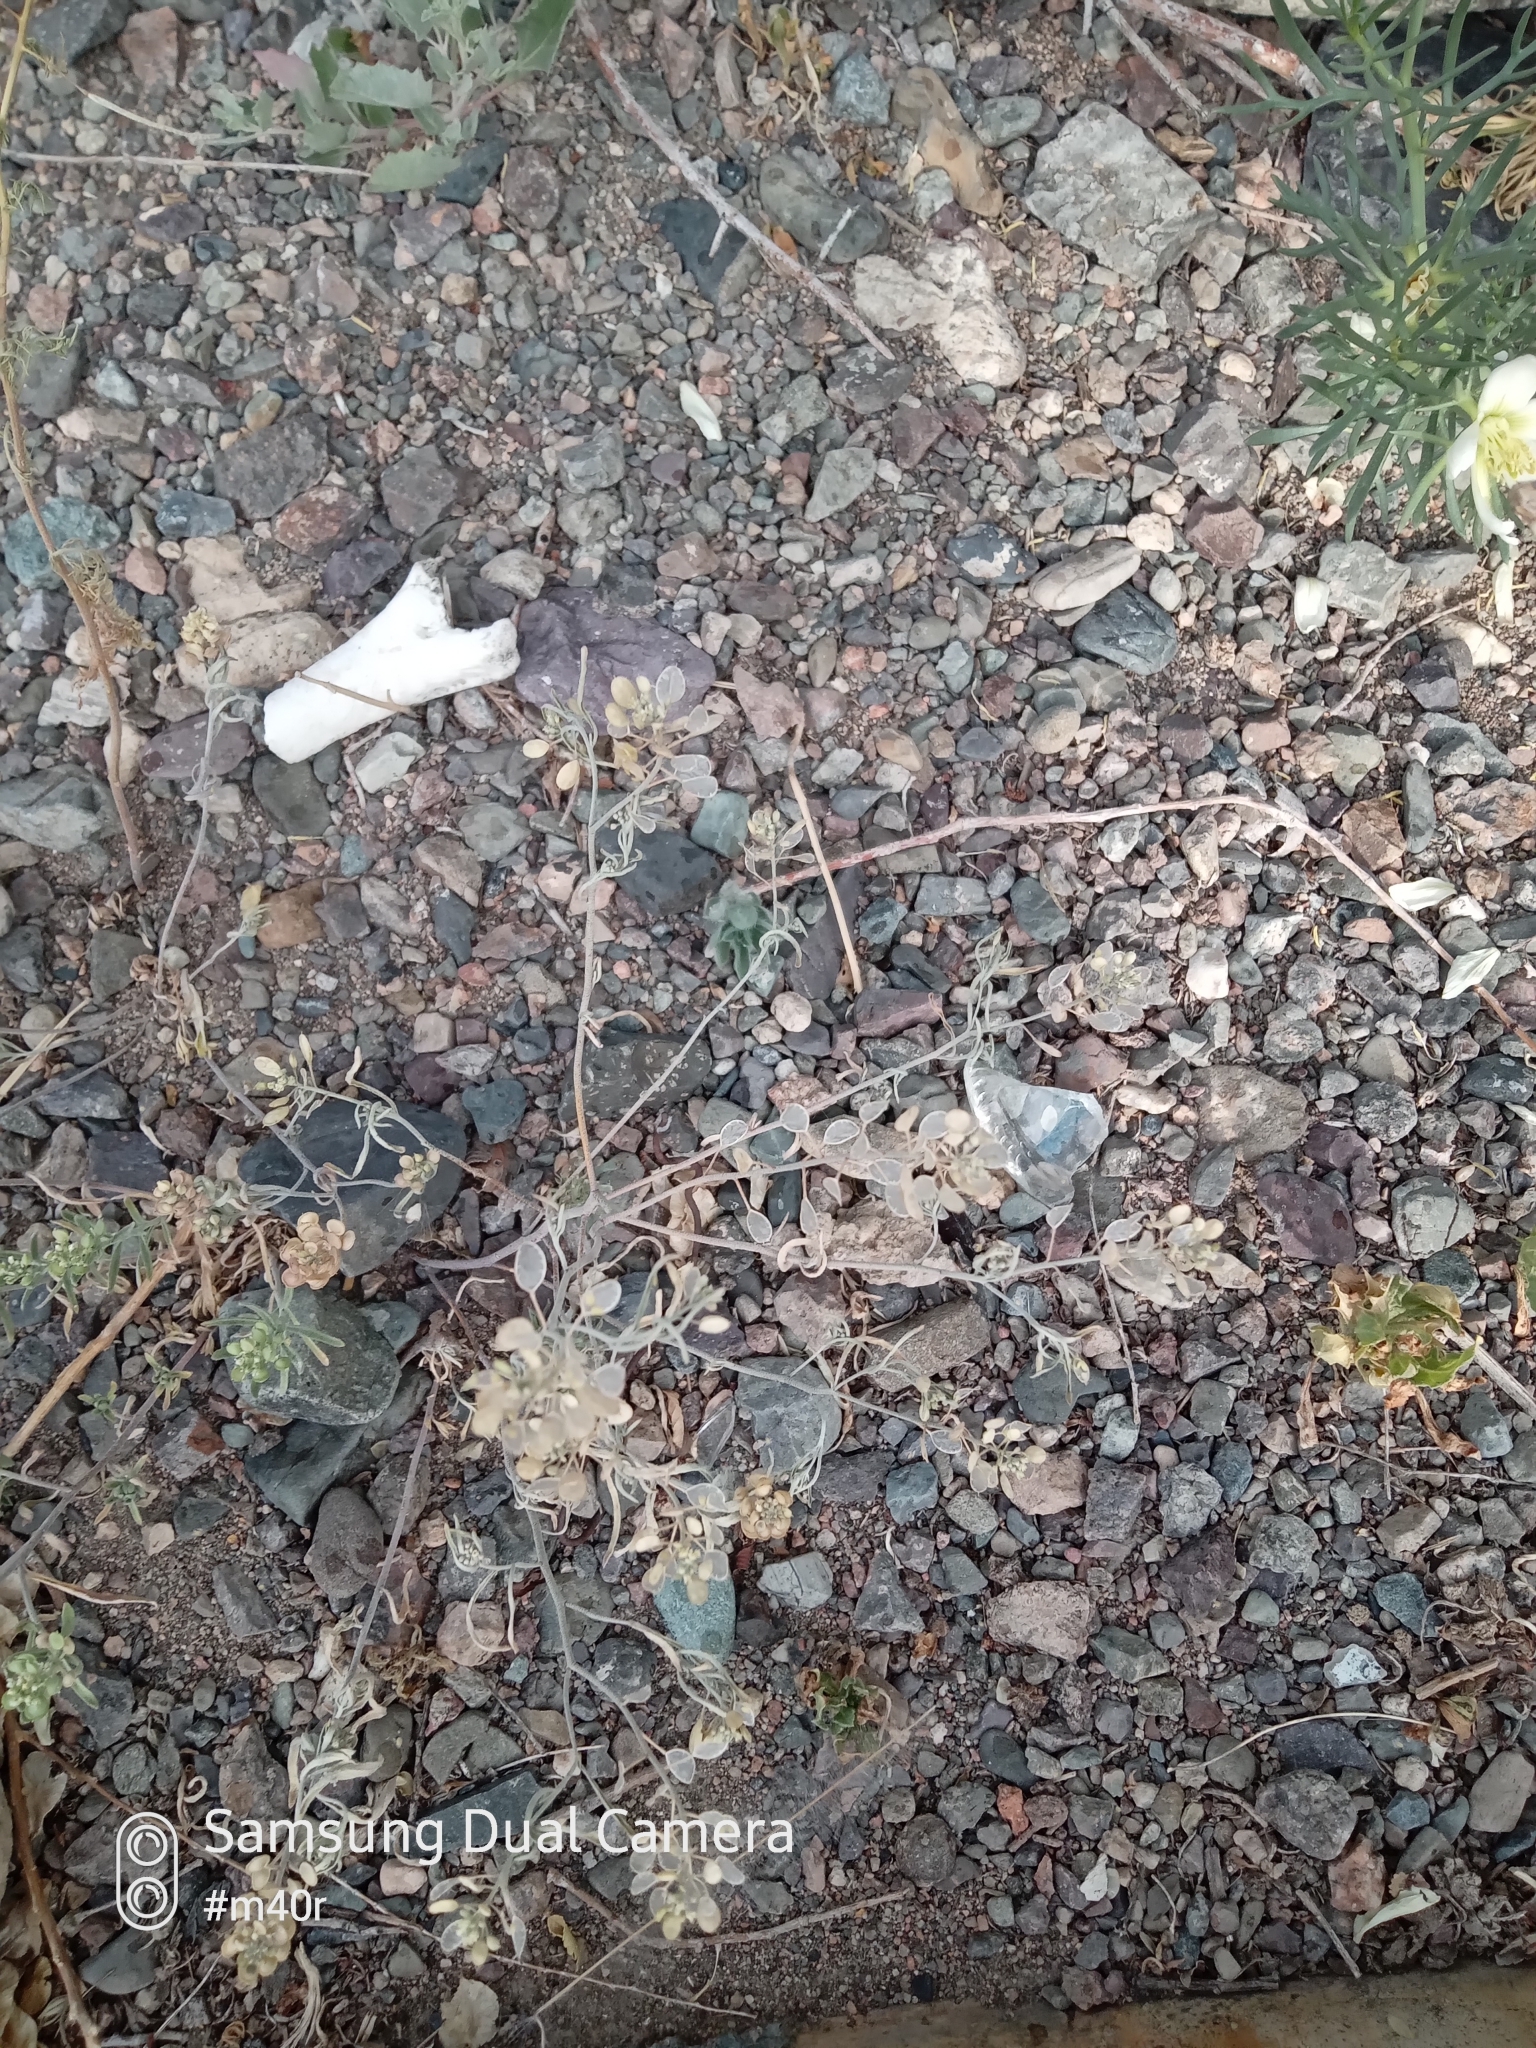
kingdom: Plantae
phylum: Tracheophyta
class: Magnoliopsida
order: Brassicales
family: Brassicaceae
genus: Meniocus
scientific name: Meniocus linifolius
